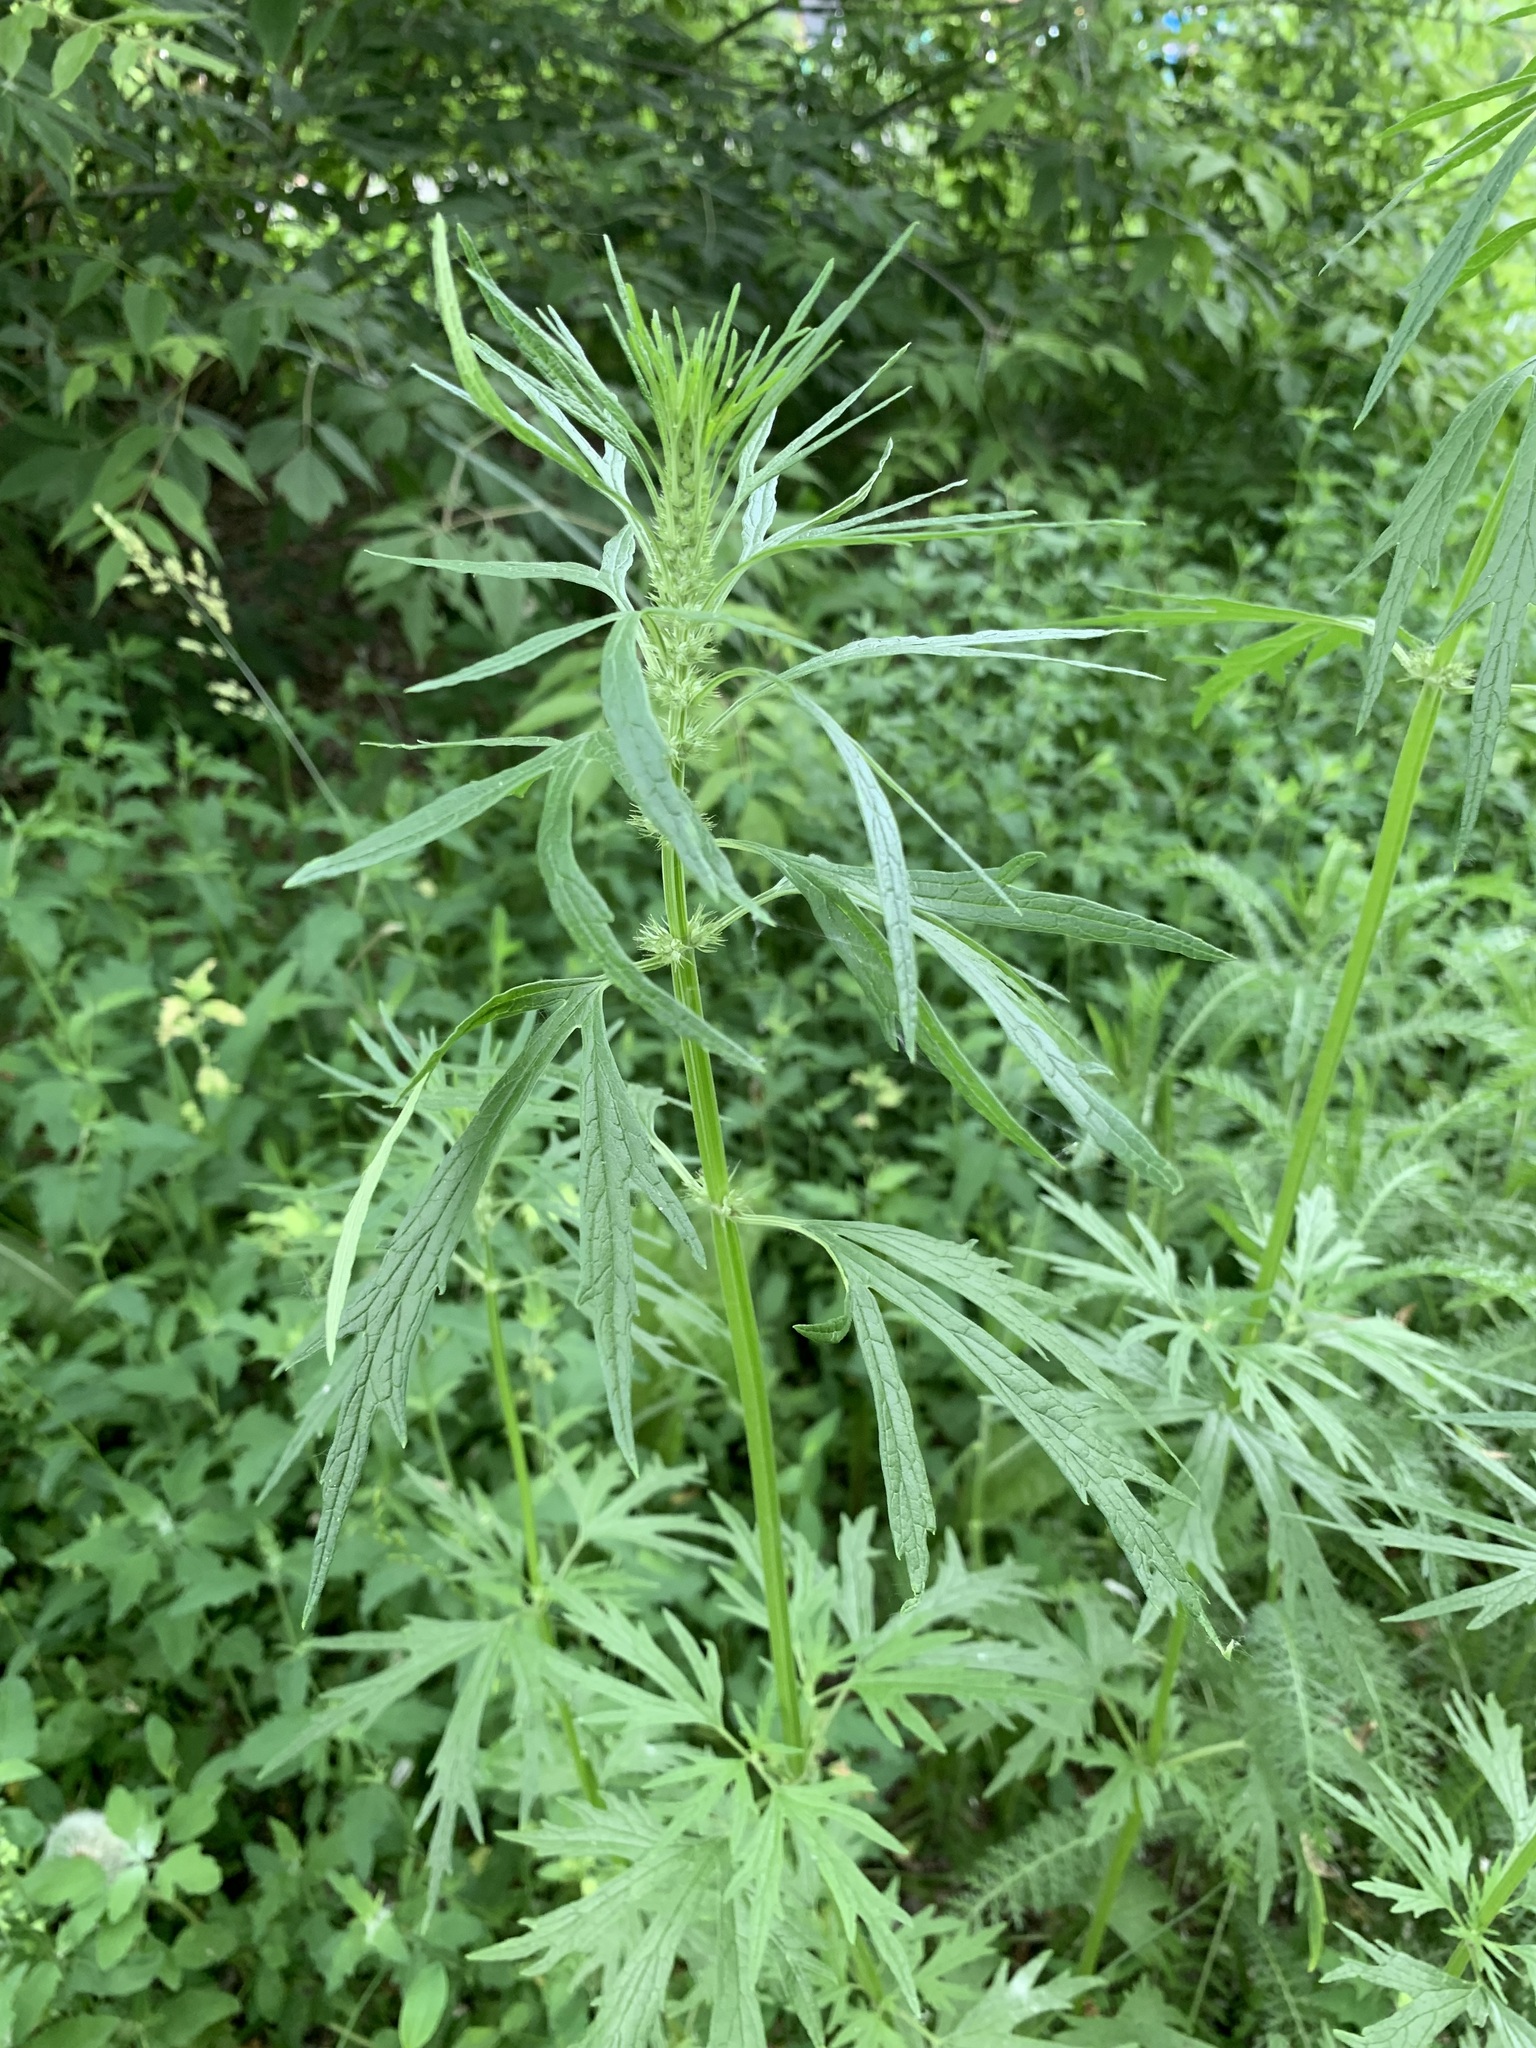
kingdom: Plantae
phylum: Tracheophyta
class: Magnoliopsida
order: Lamiales
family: Lamiaceae
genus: Leonurus
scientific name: Leonurus glaucescens
